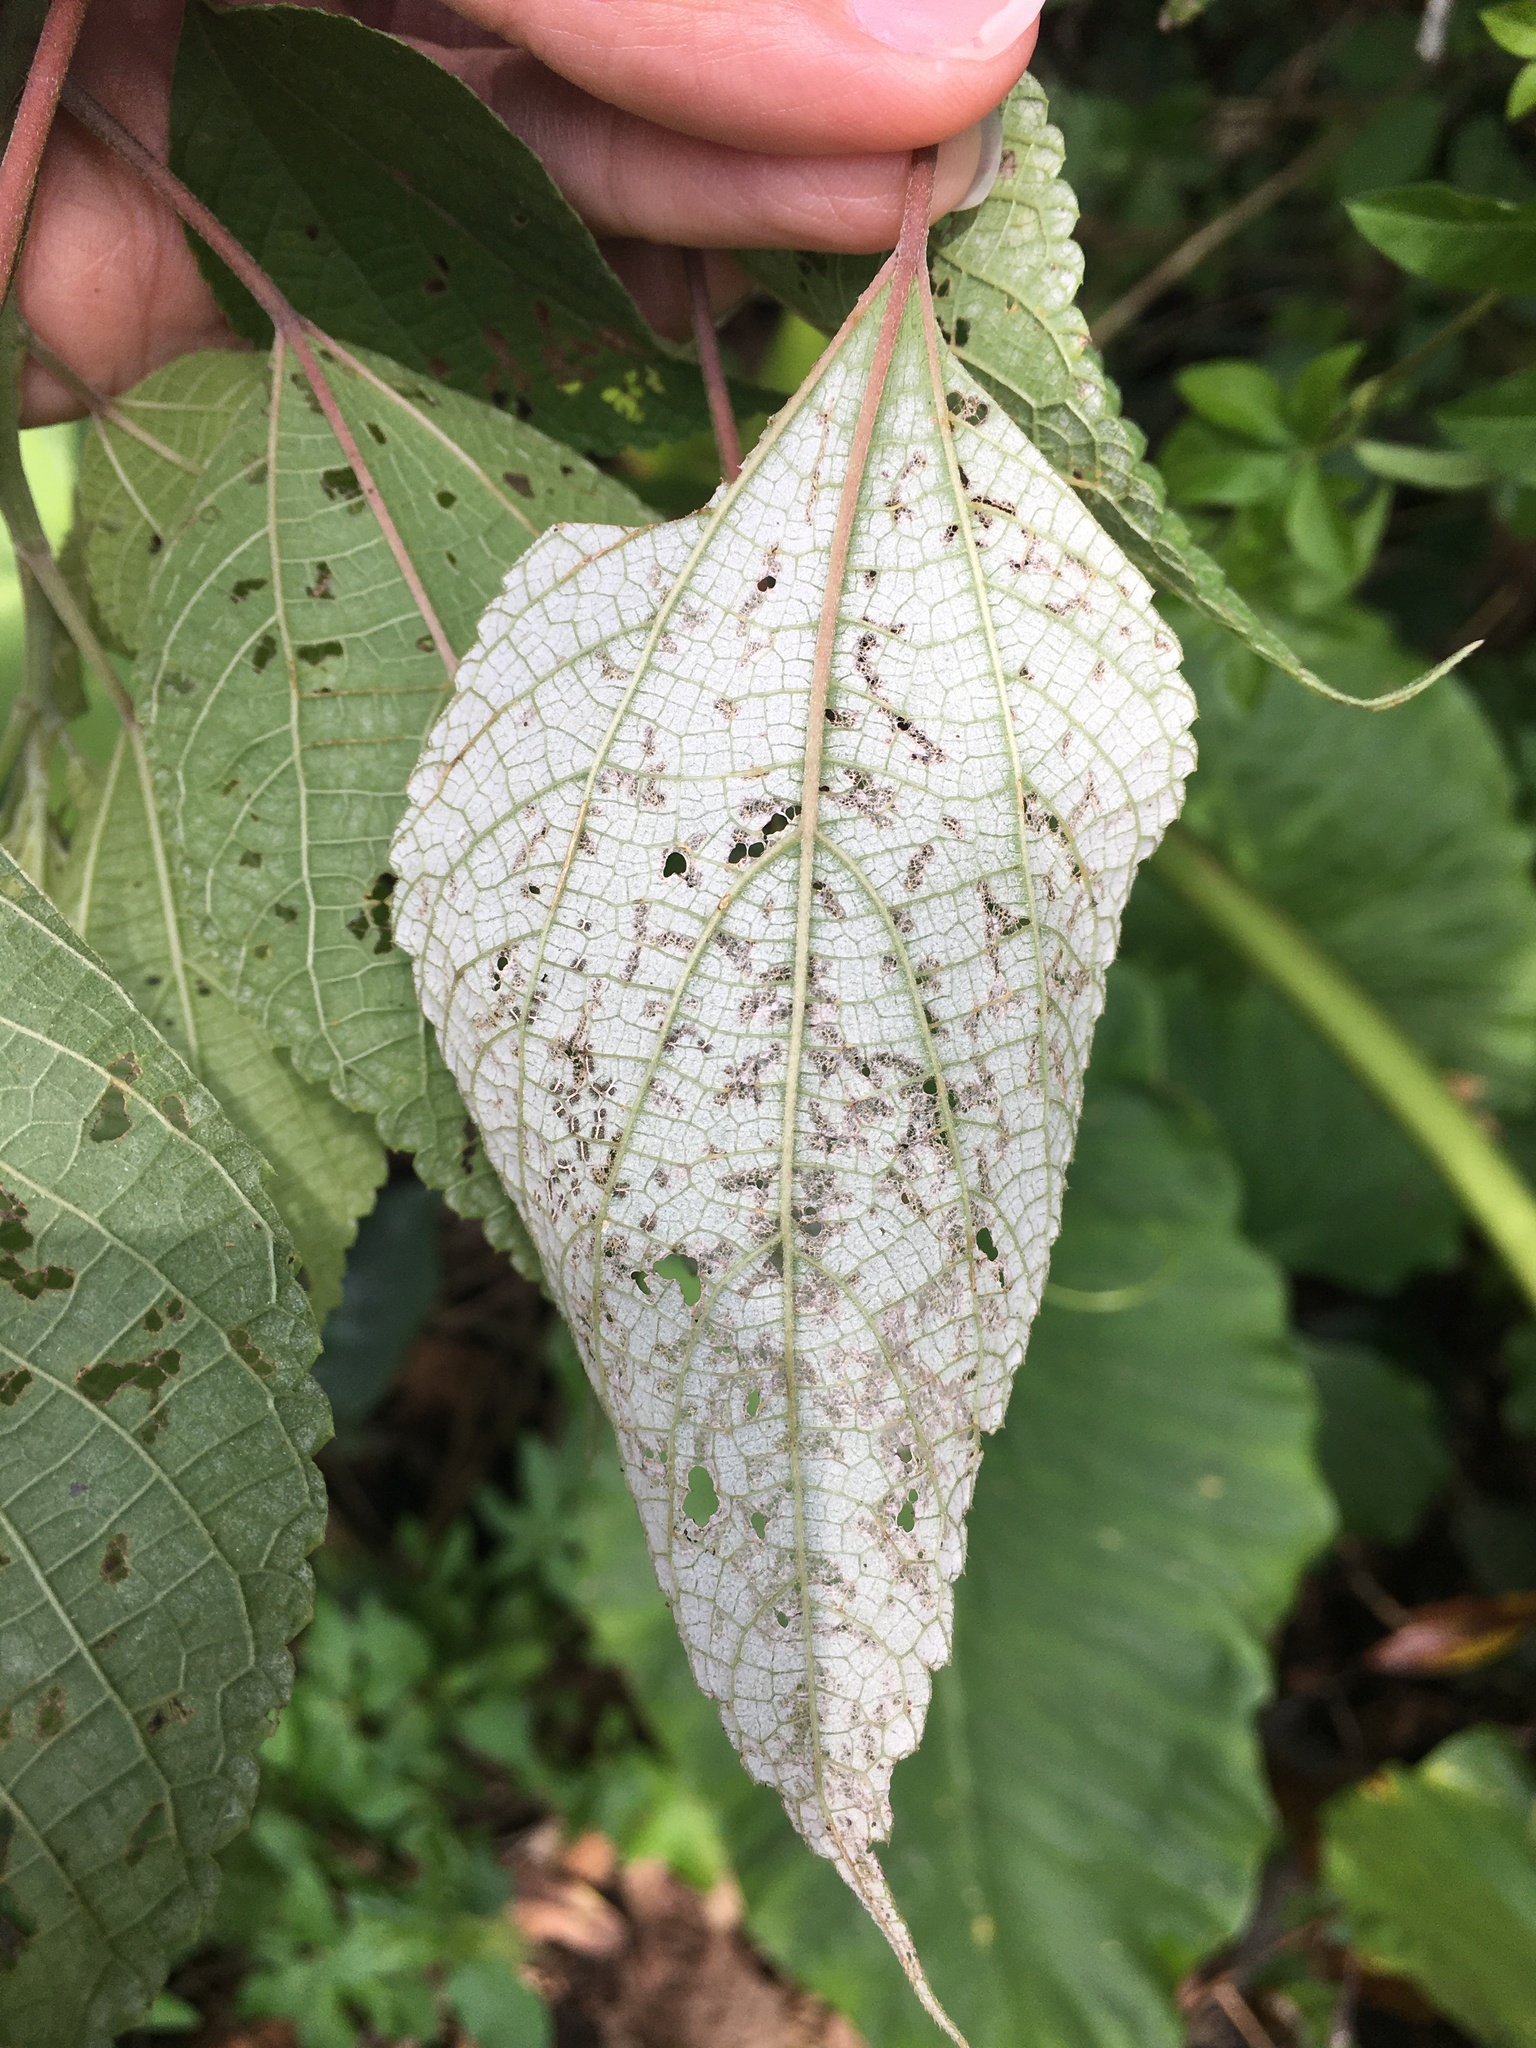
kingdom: Plantae
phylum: Tracheophyta
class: Magnoliopsida
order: Rosales
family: Urticaceae
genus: Boehmeria
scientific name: Boehmeria nivea
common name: Ramie chinese grass
